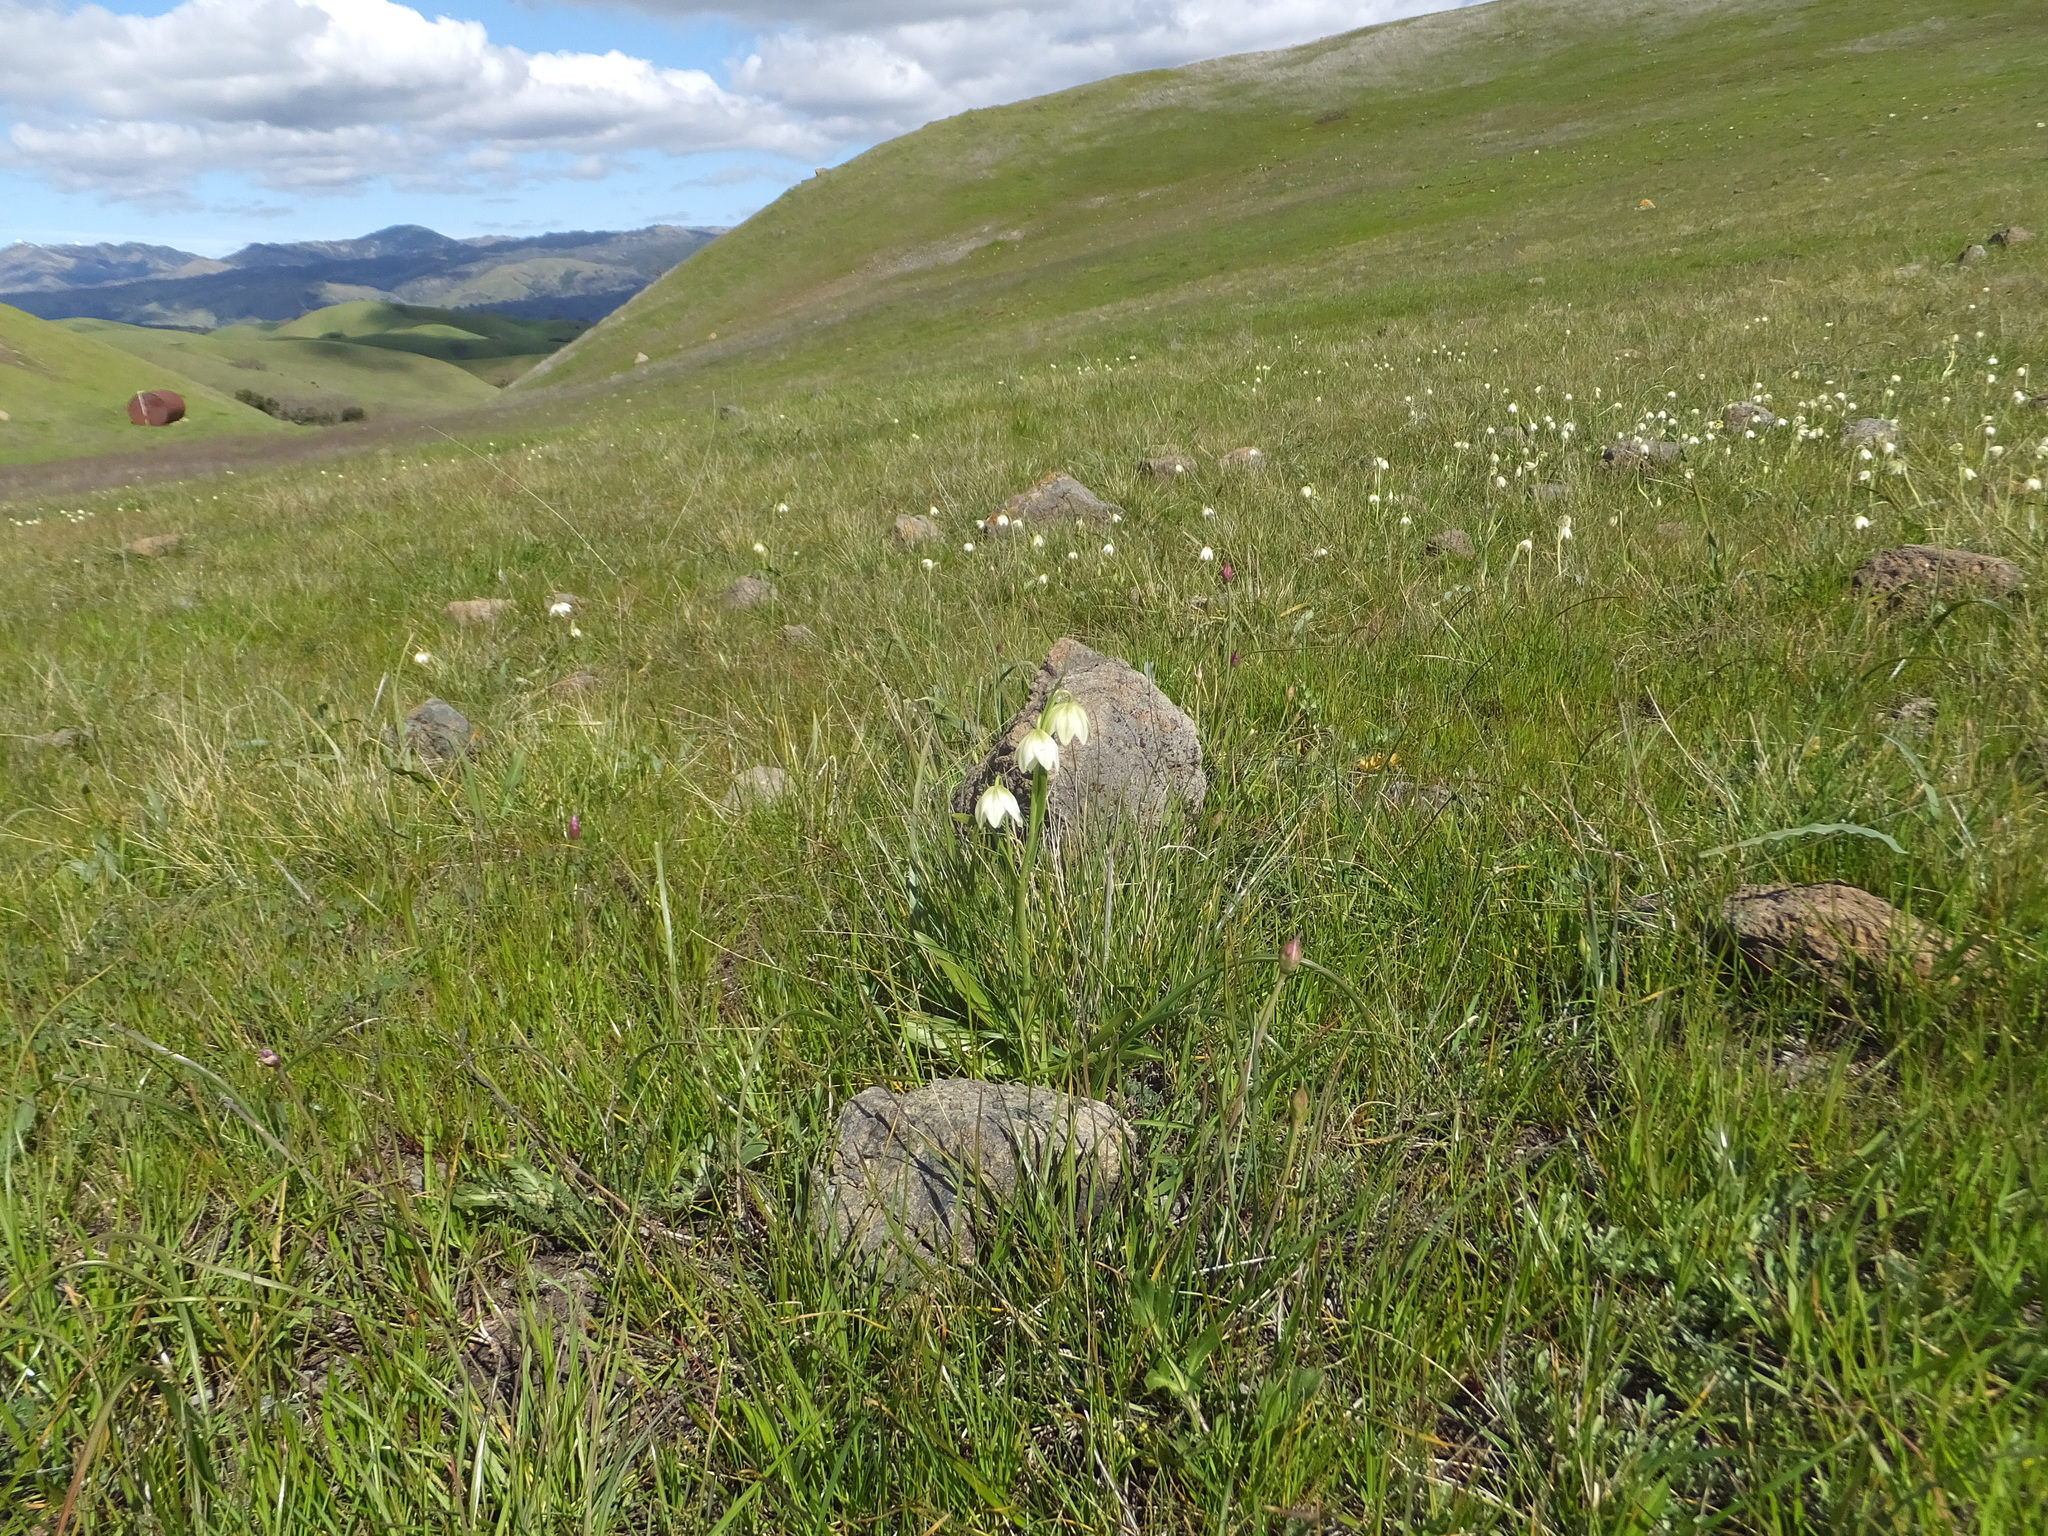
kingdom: Plantae
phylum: Tracheophyta
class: Liliopsida
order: Liliales
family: Liliaceae
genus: Fritillaria
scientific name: Fritillaria liliacea
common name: Fragrant fritillary
